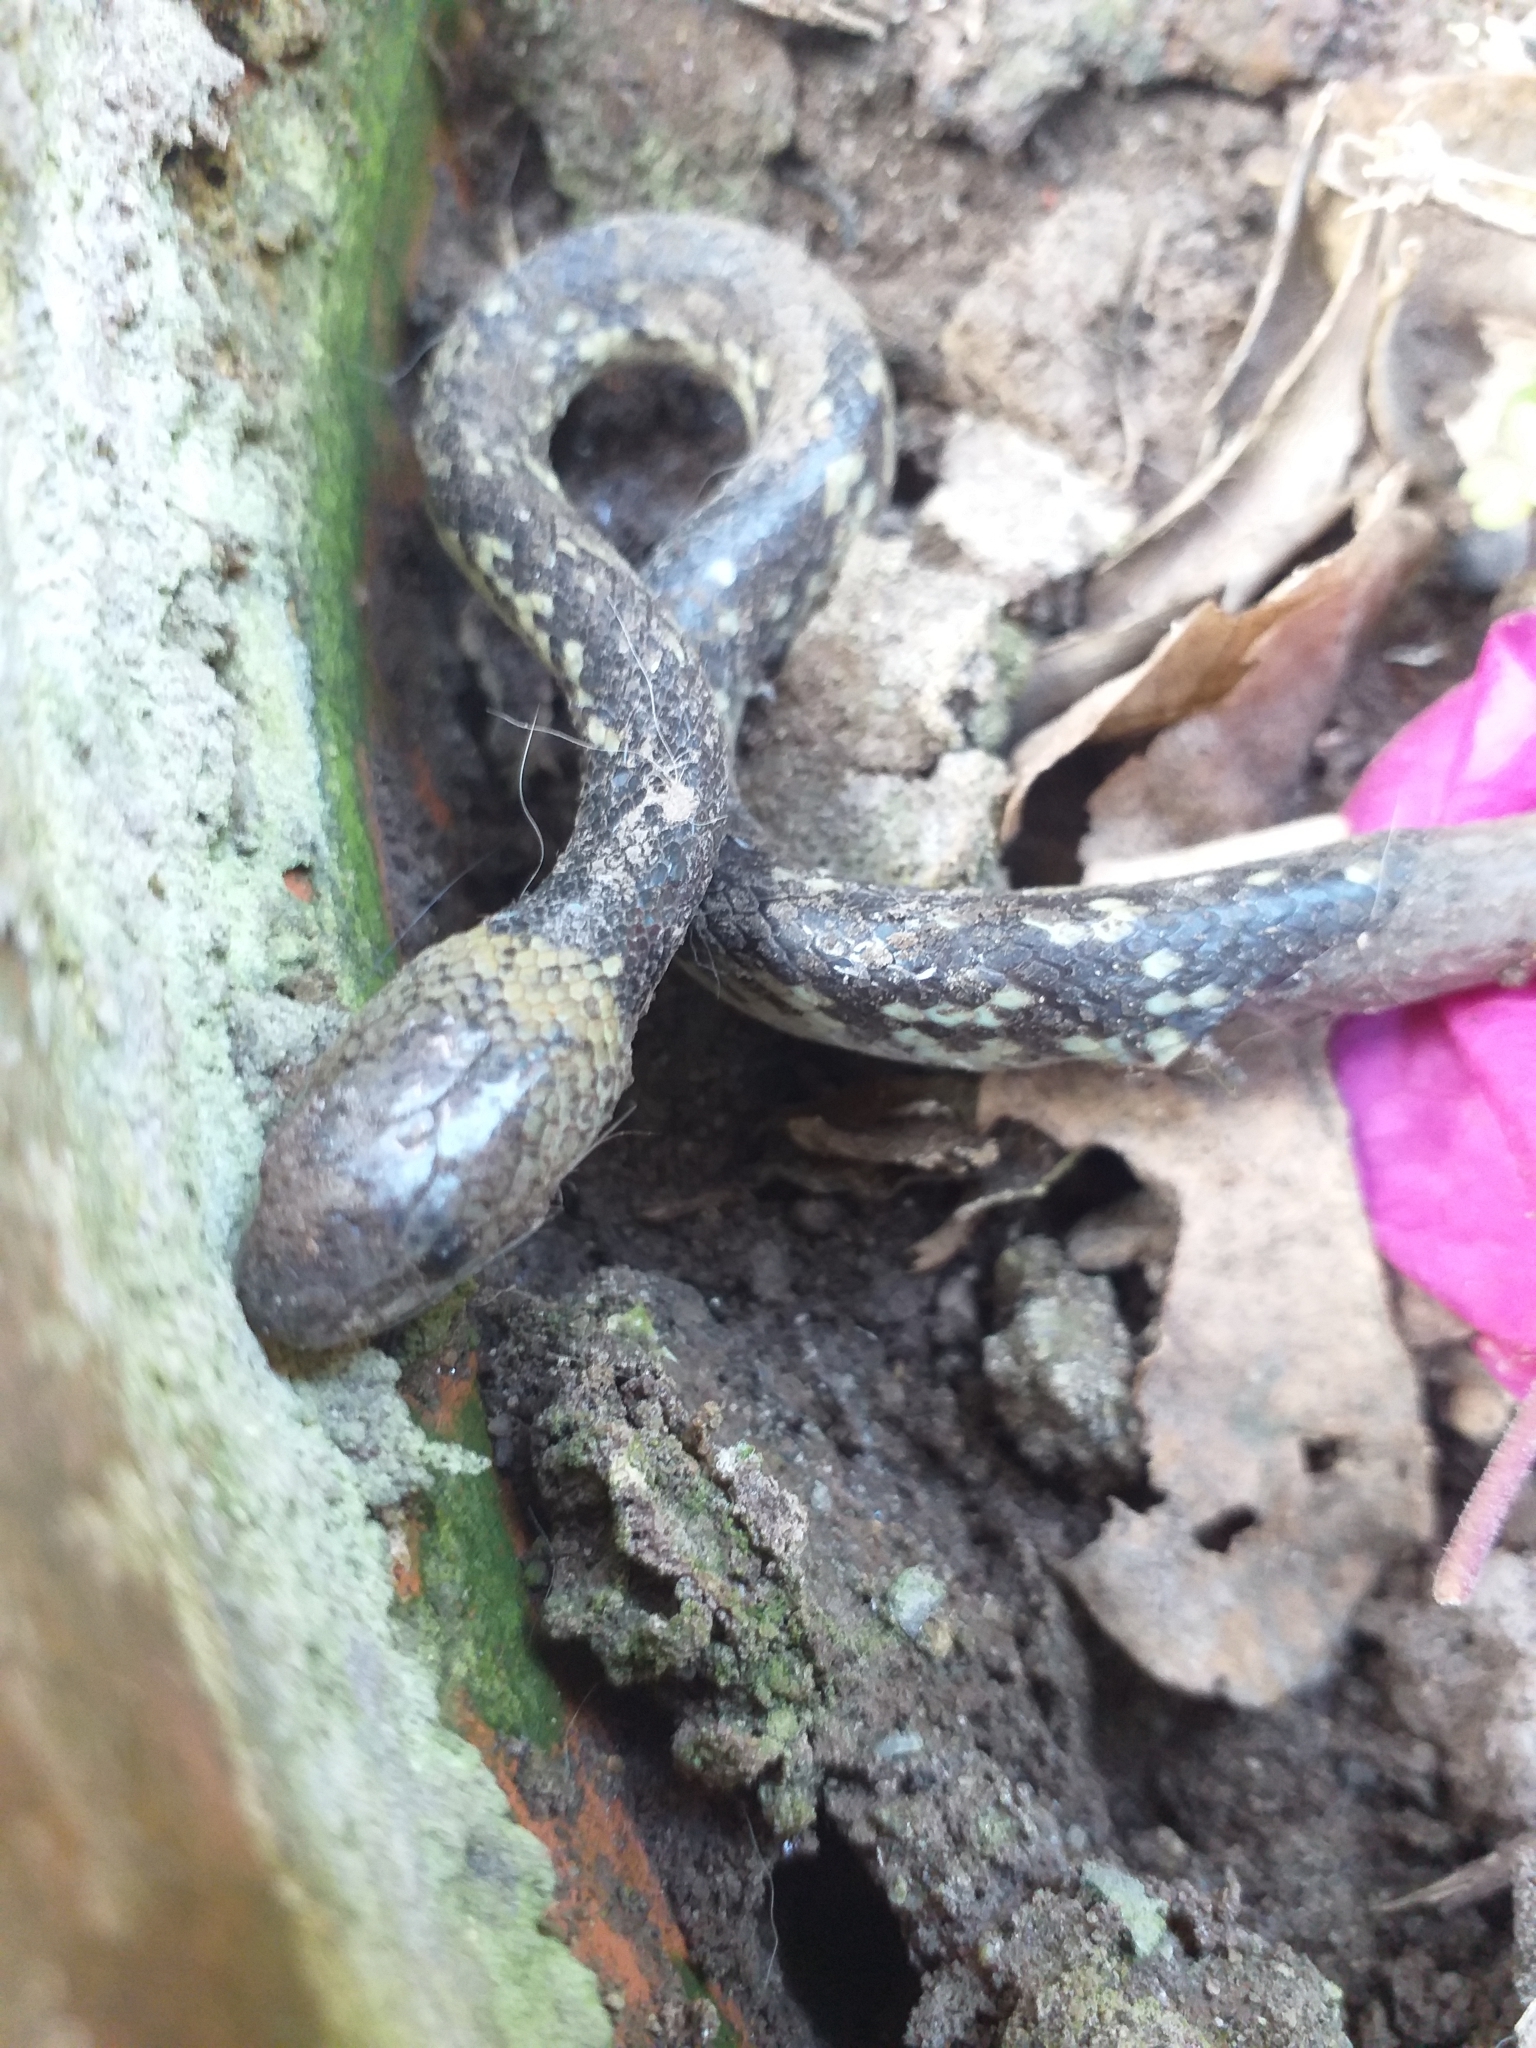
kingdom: Animalia
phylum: Chordata
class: Squamata
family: Colubridae
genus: Oxyrhopus
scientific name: Oxyrhopus fitzingeri
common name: Fitzinger's false coral snake
